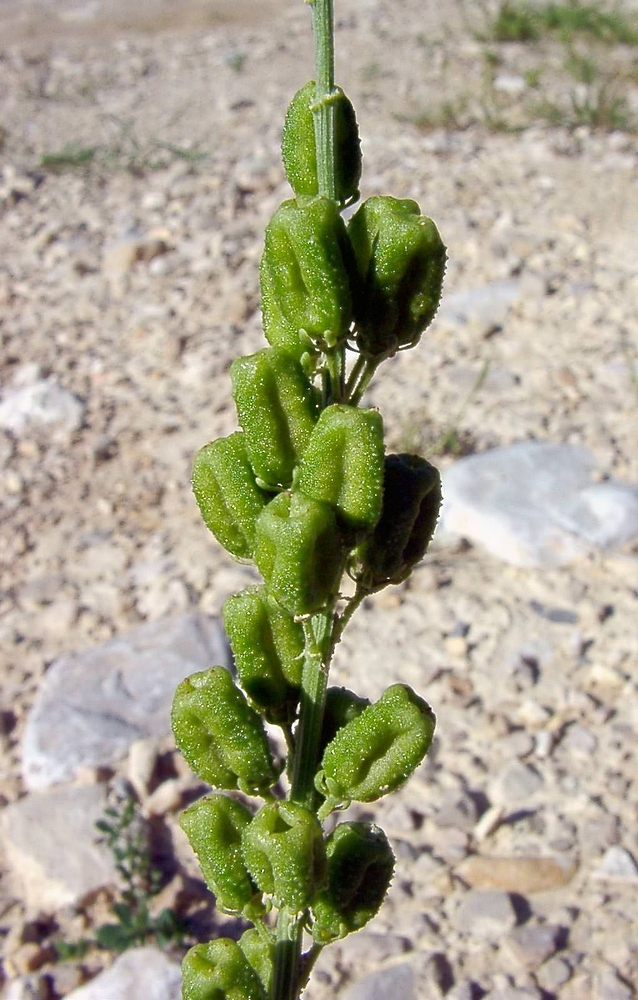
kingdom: Plantae
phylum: Tracheophyta
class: Magnoliopsida
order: Brassicales
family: Resedaceae
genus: Reseda
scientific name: Reseda lutea
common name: Wild mignonette
